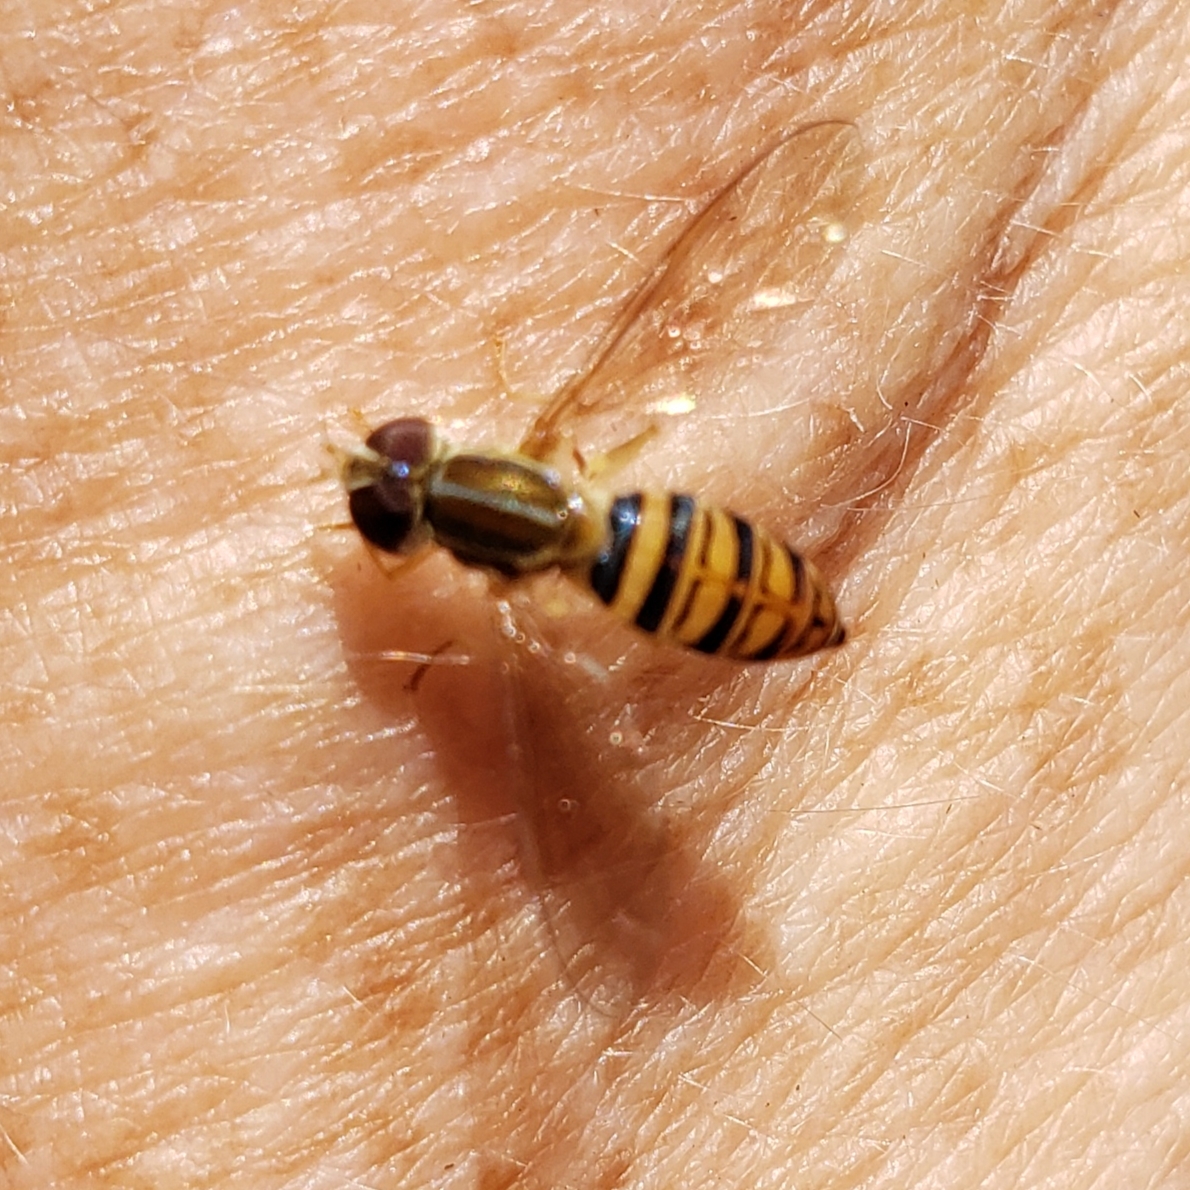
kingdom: Animalia
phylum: Arthropoda
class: Insecta
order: Diptera
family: Syrphidae
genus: Toxomerus
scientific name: Toxomerus politus
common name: Maize calligrapher
